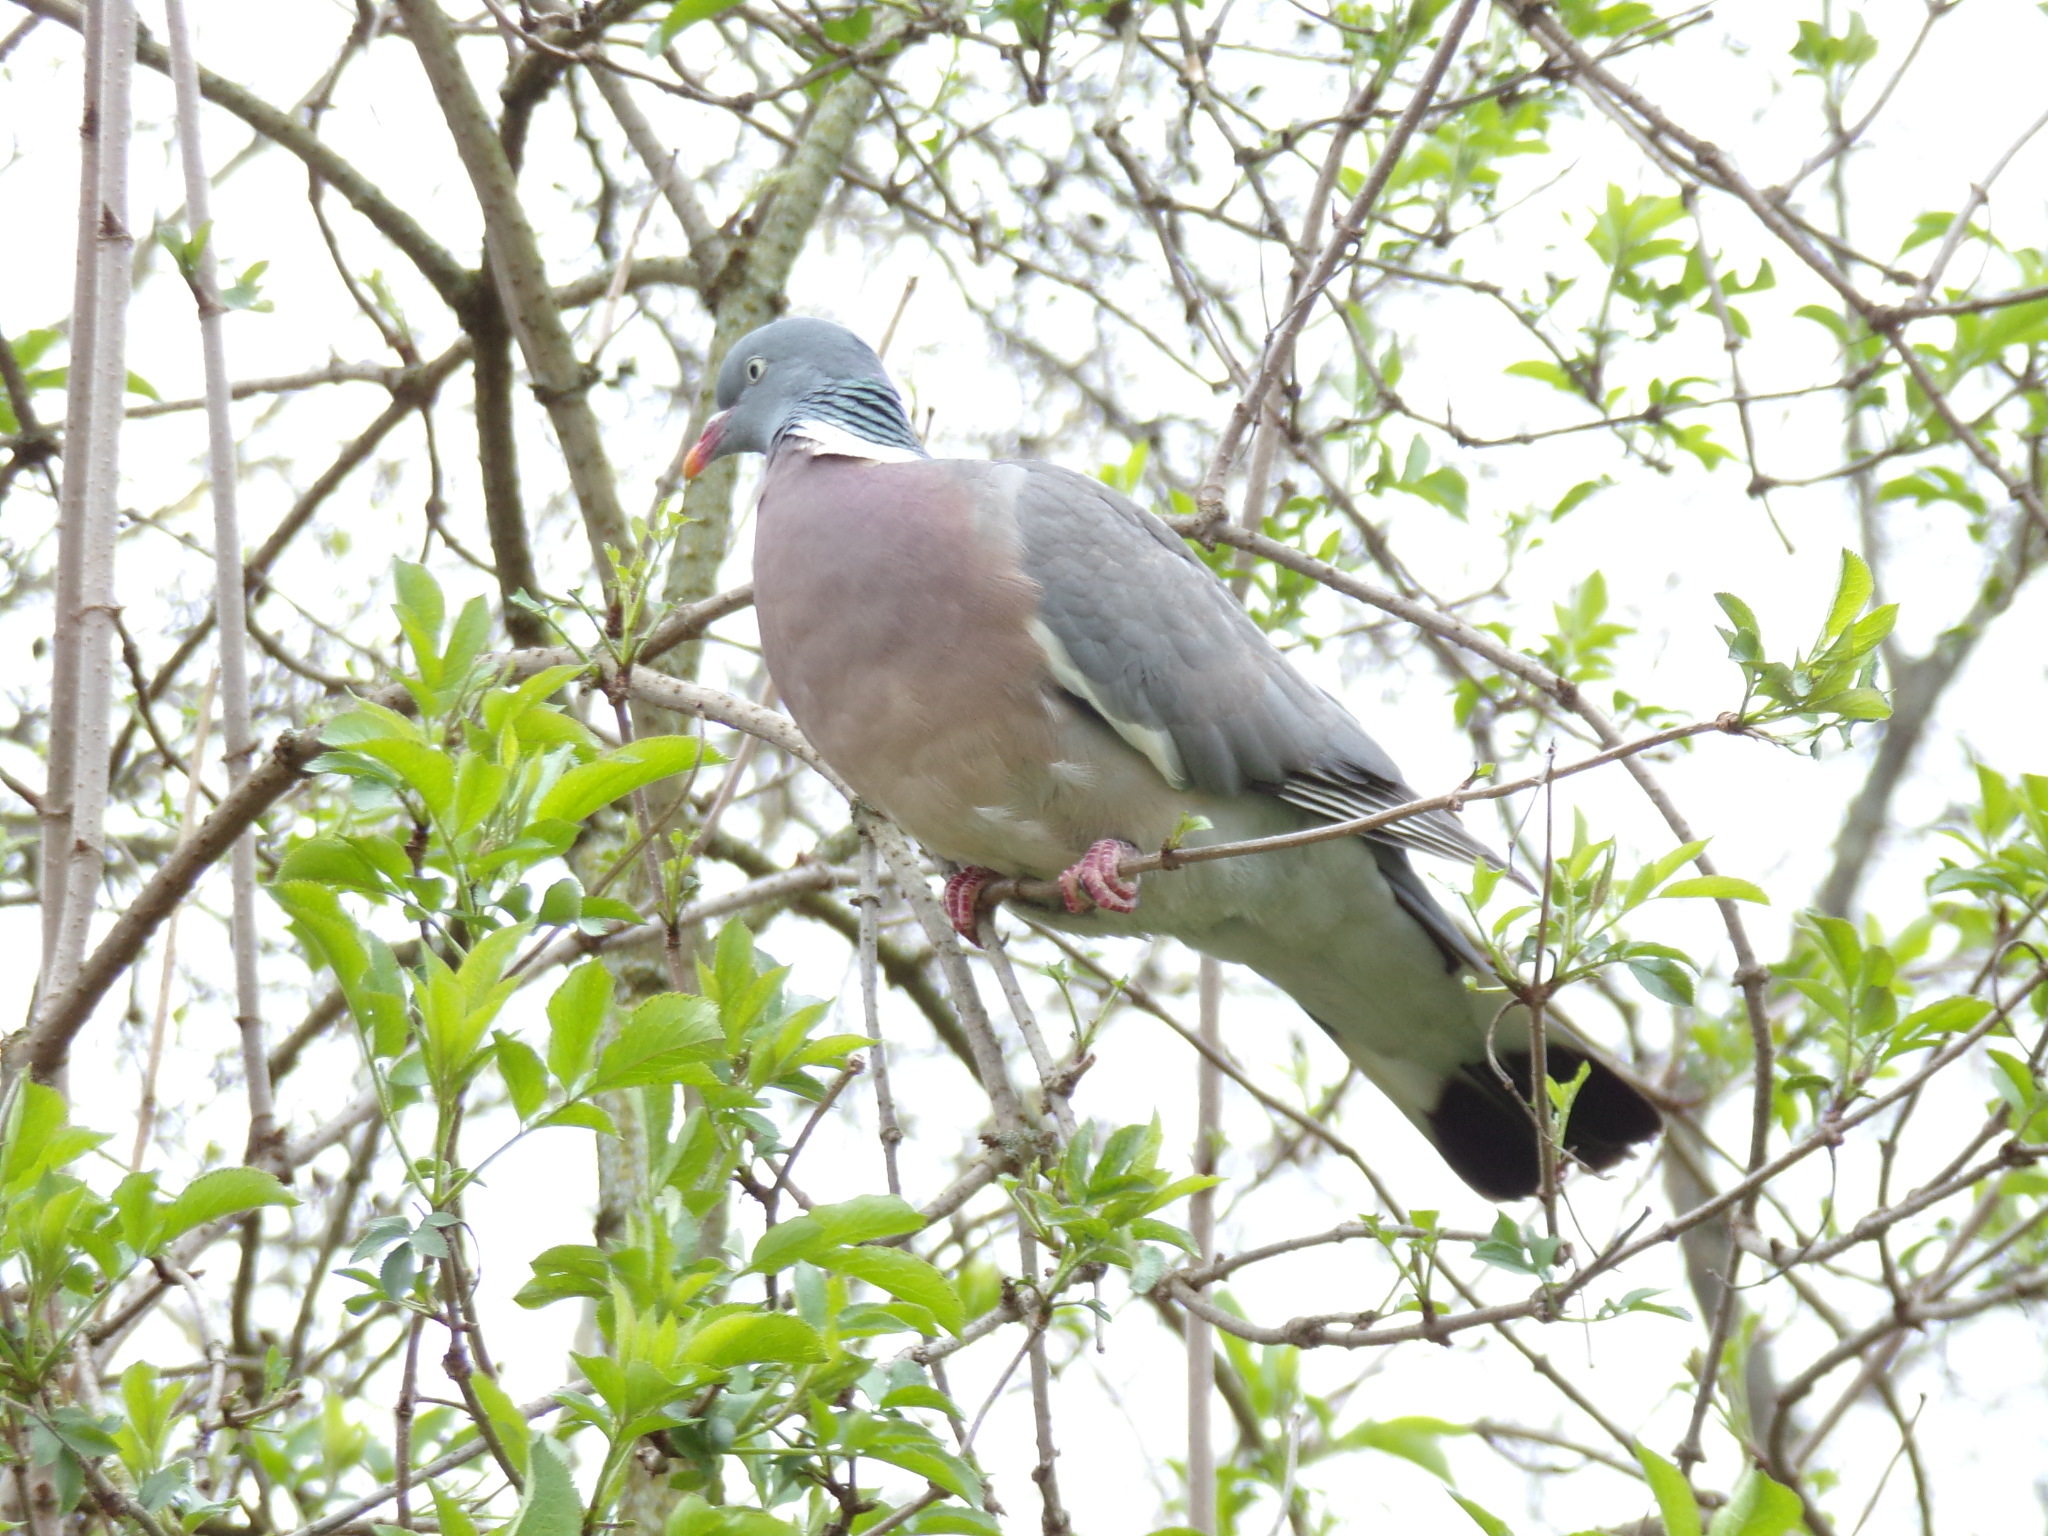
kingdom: Animalia
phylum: Chordata
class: Aves
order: Columbiformes
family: Columbidae
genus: Columba
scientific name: Columba palumbus
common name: Common wood pigeon
